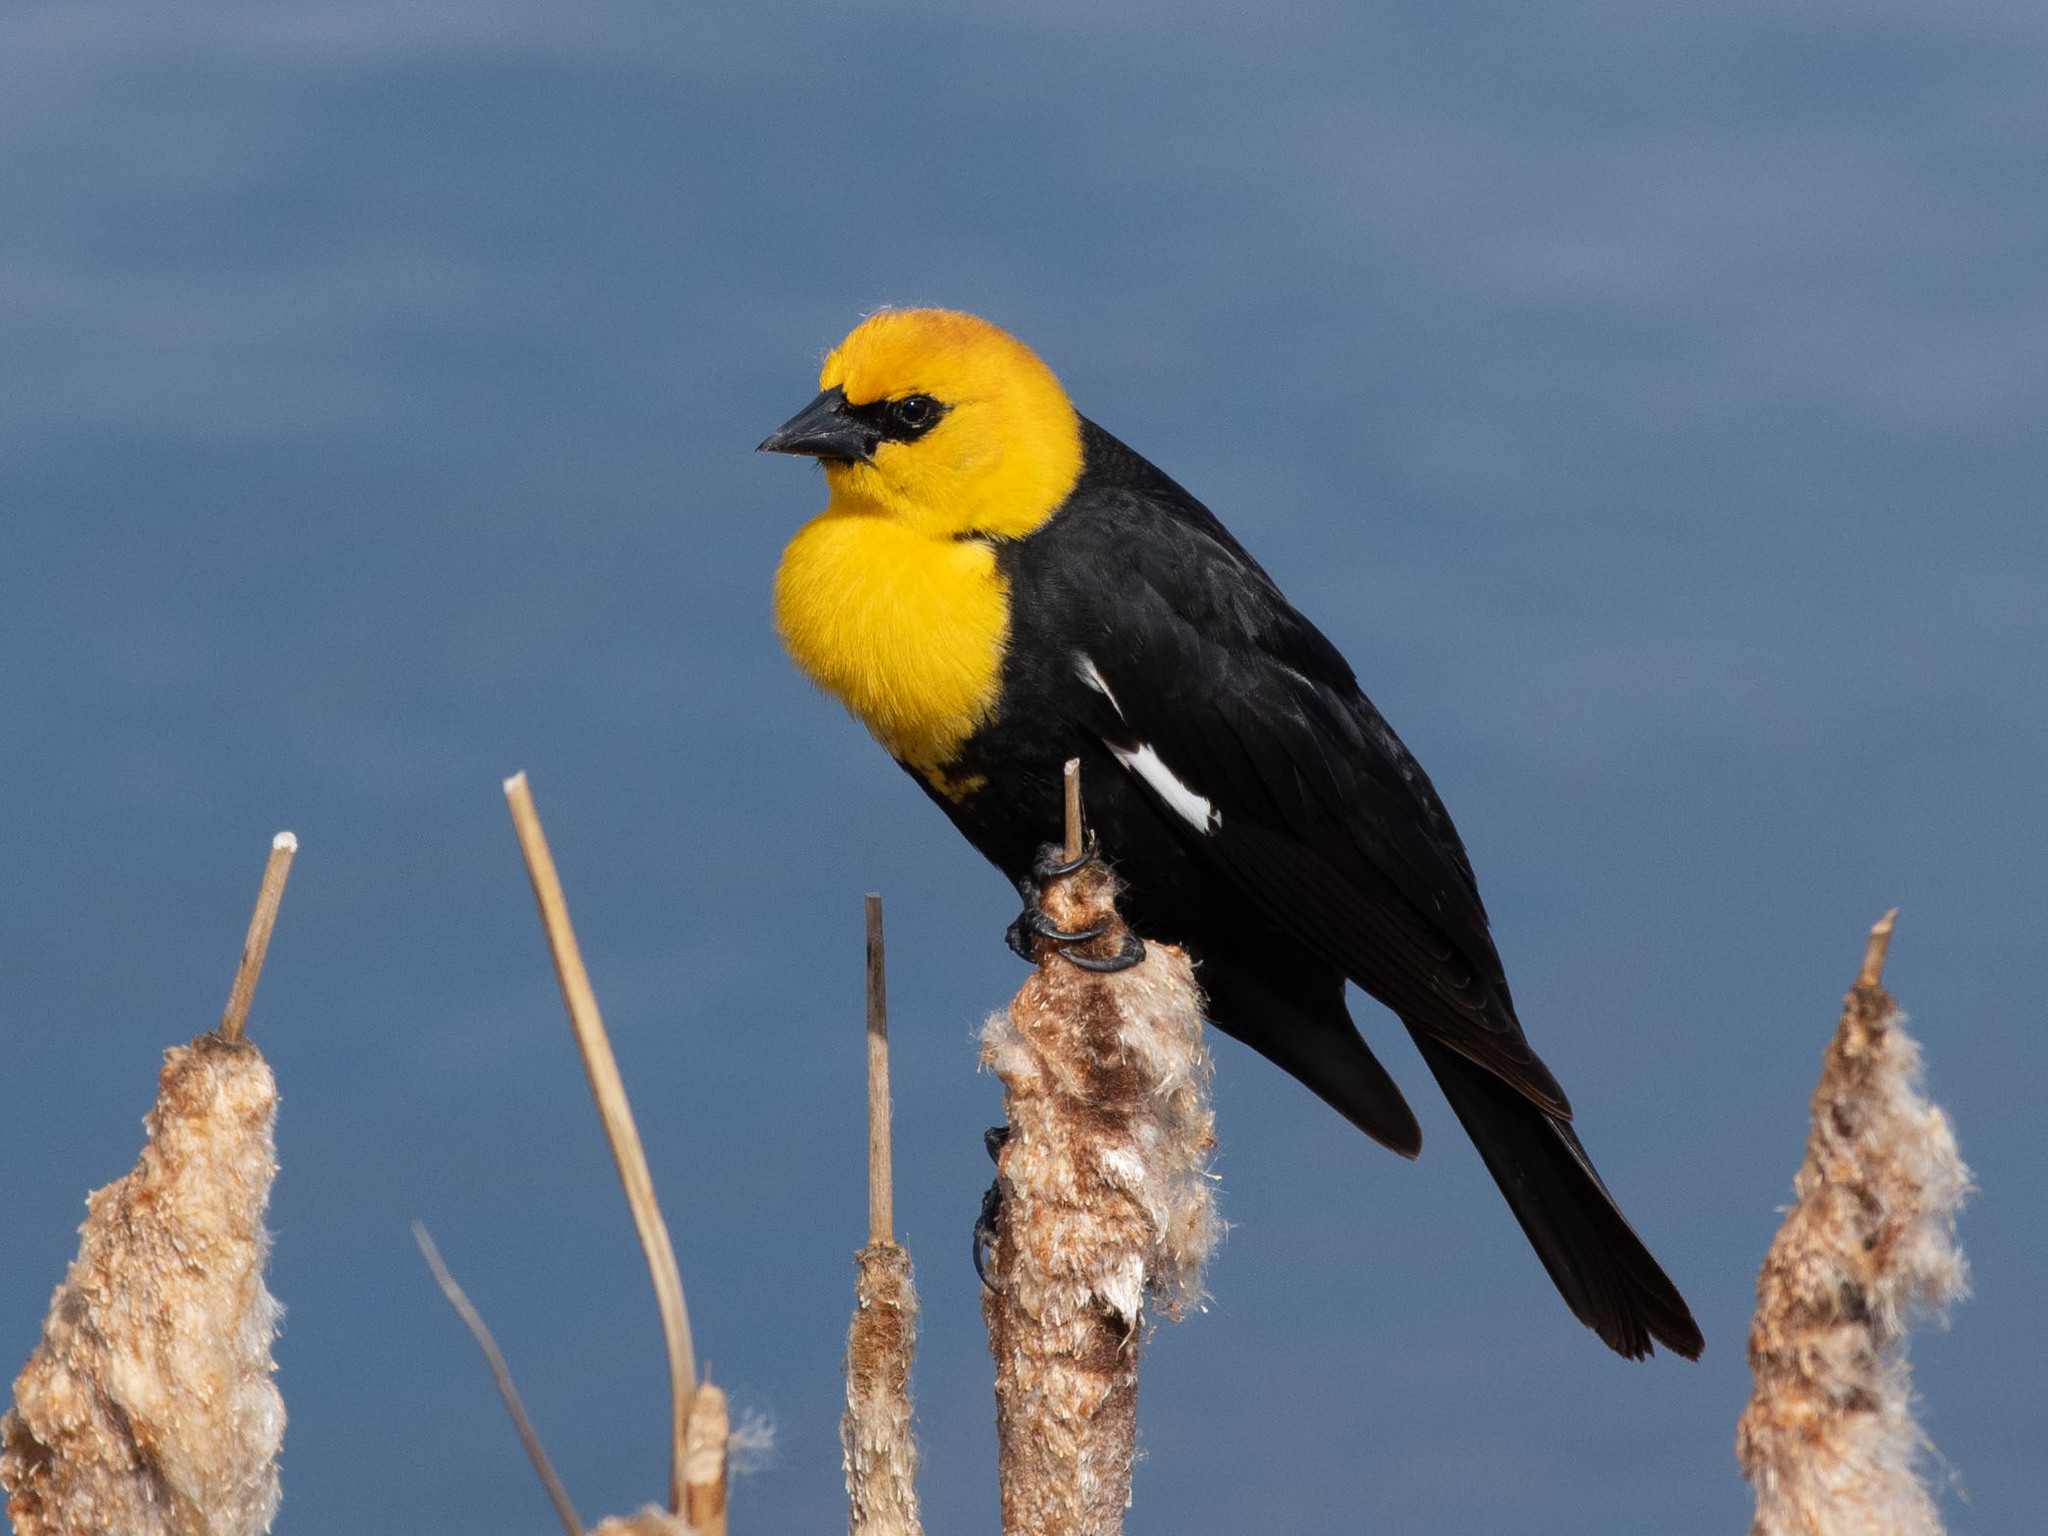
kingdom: Animalia
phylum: Chordata
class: Aves
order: Passeriformes
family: Icteridae
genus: Xanthocephalus
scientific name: Xanthocephalus xanthocephalus
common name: Yellow-headed blackbird
